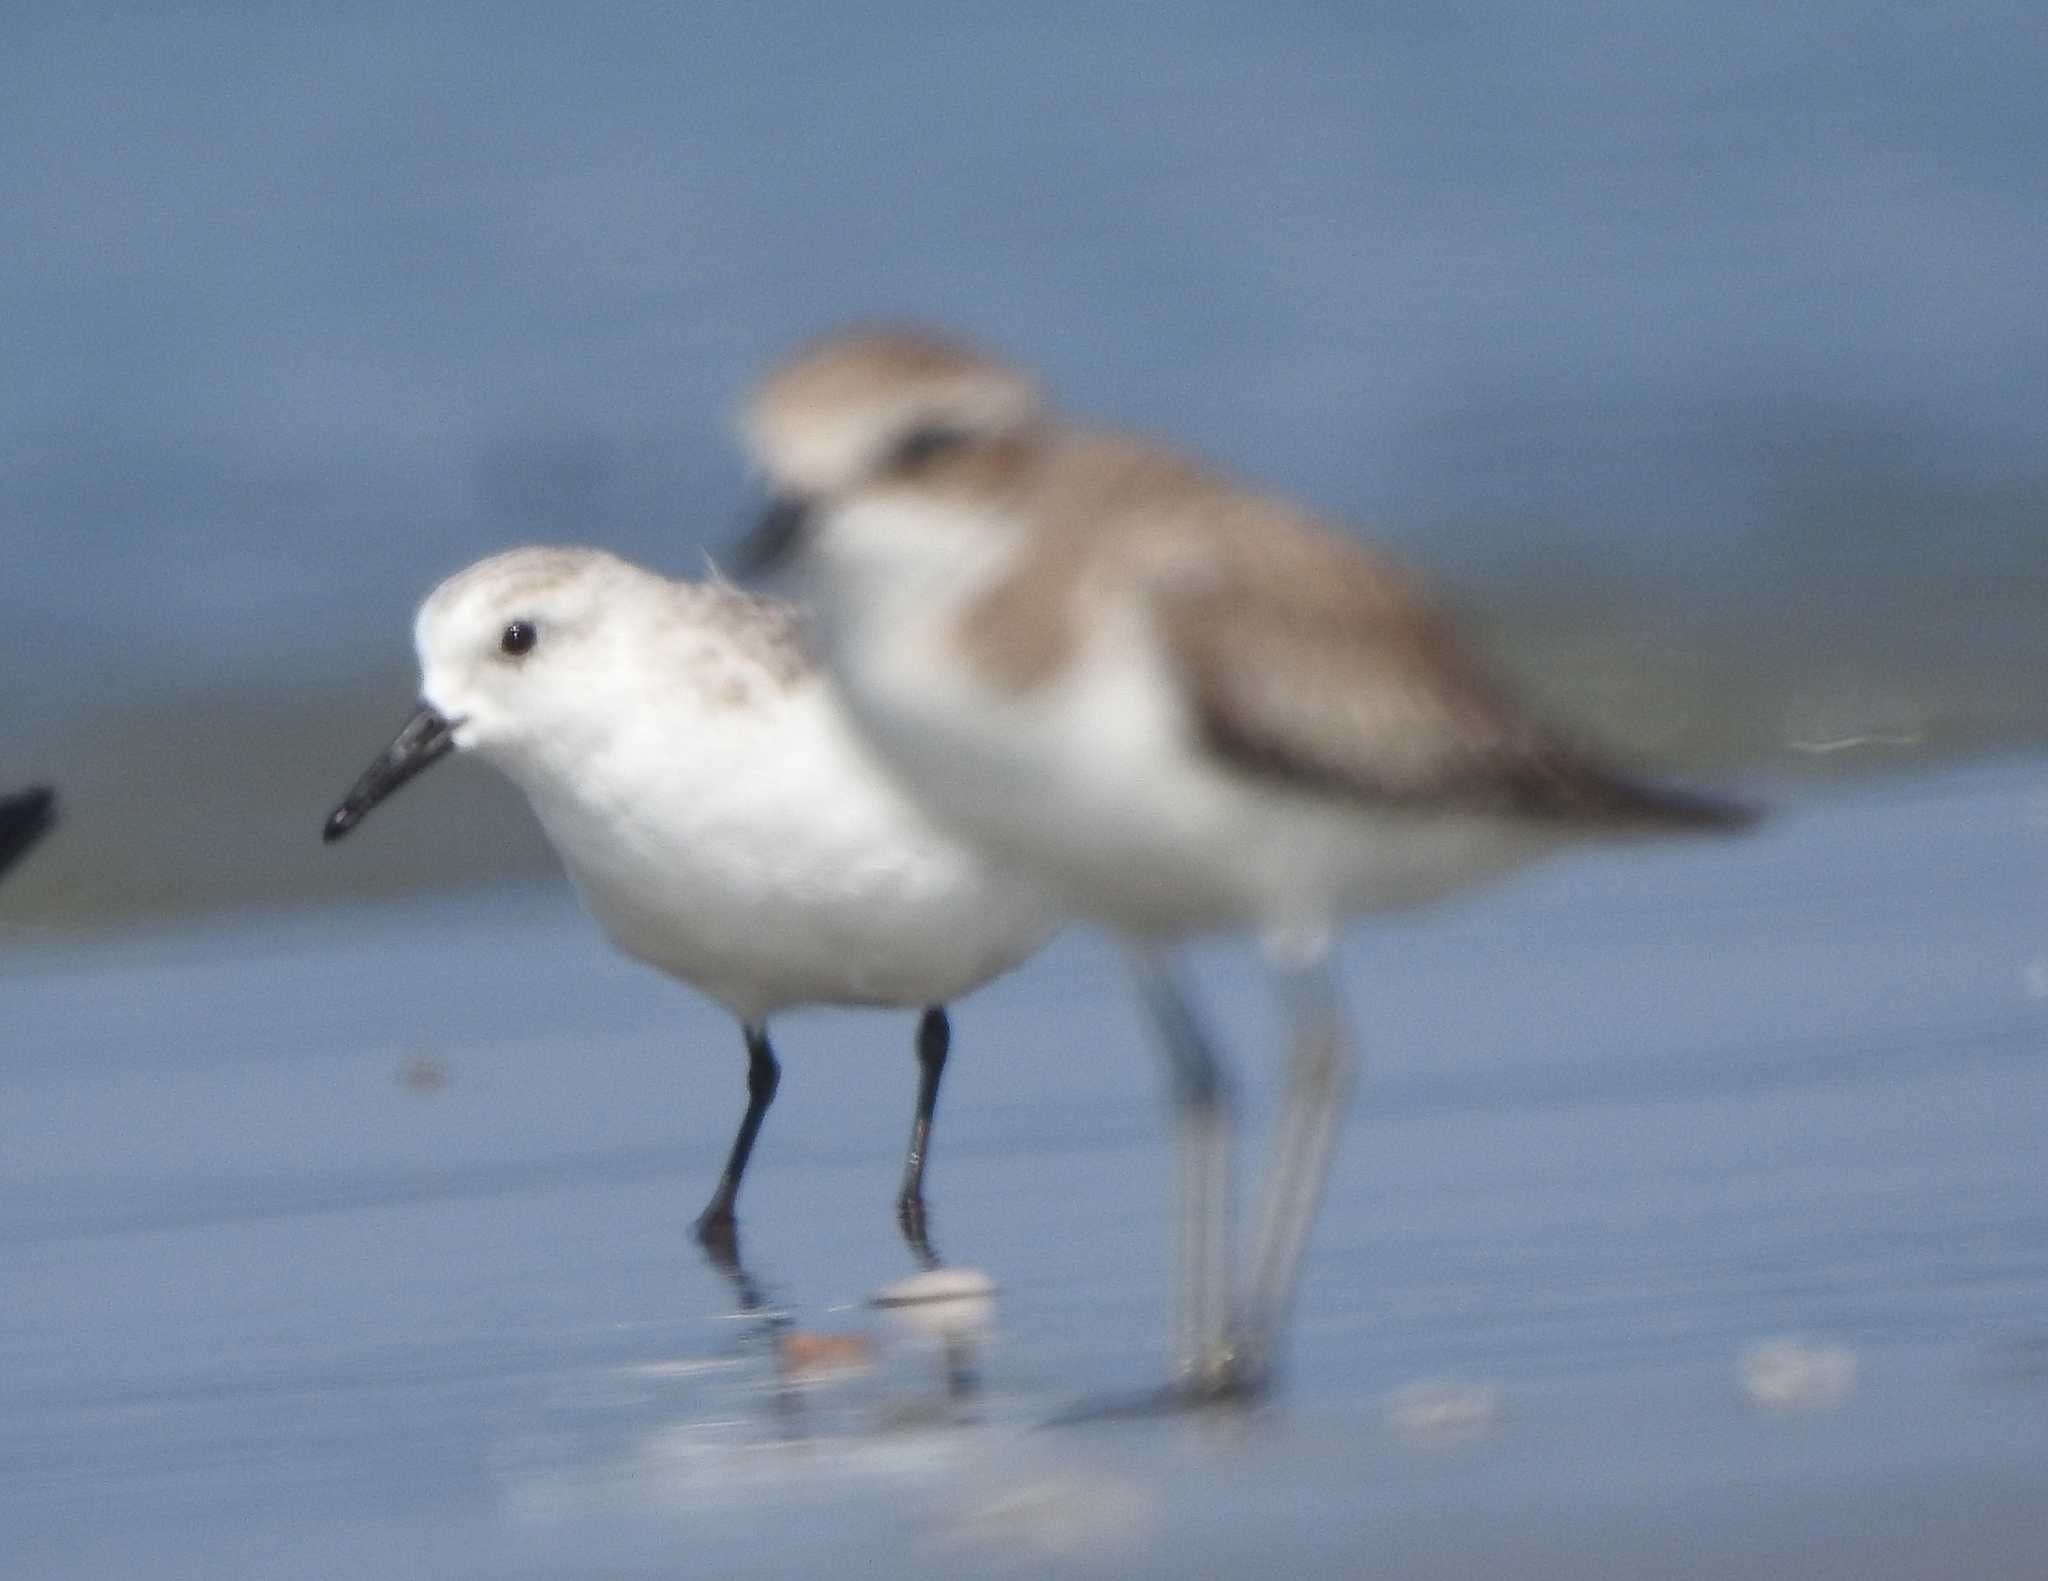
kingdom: Animalia
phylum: Chordata
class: Aves
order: Charadriiformes
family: Scolopacidae
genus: Calidris
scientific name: Calidris alba
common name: Sanderling
